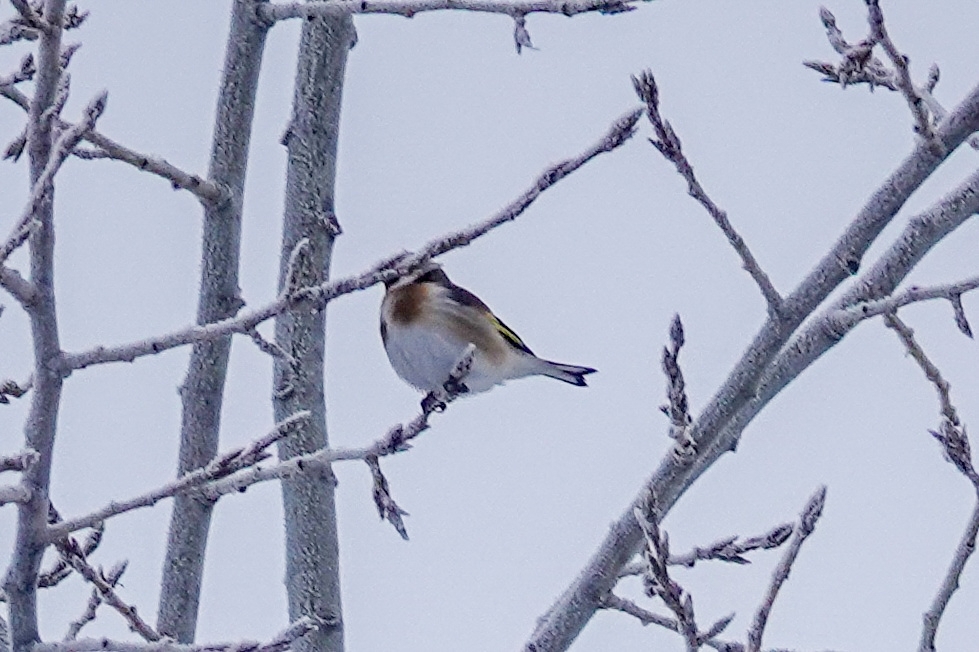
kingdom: Animalia
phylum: Chordata
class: Aves
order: Passeriformes
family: Fringillidae
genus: Carduelis
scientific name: Carduelis carduelis
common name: European goldfinch
